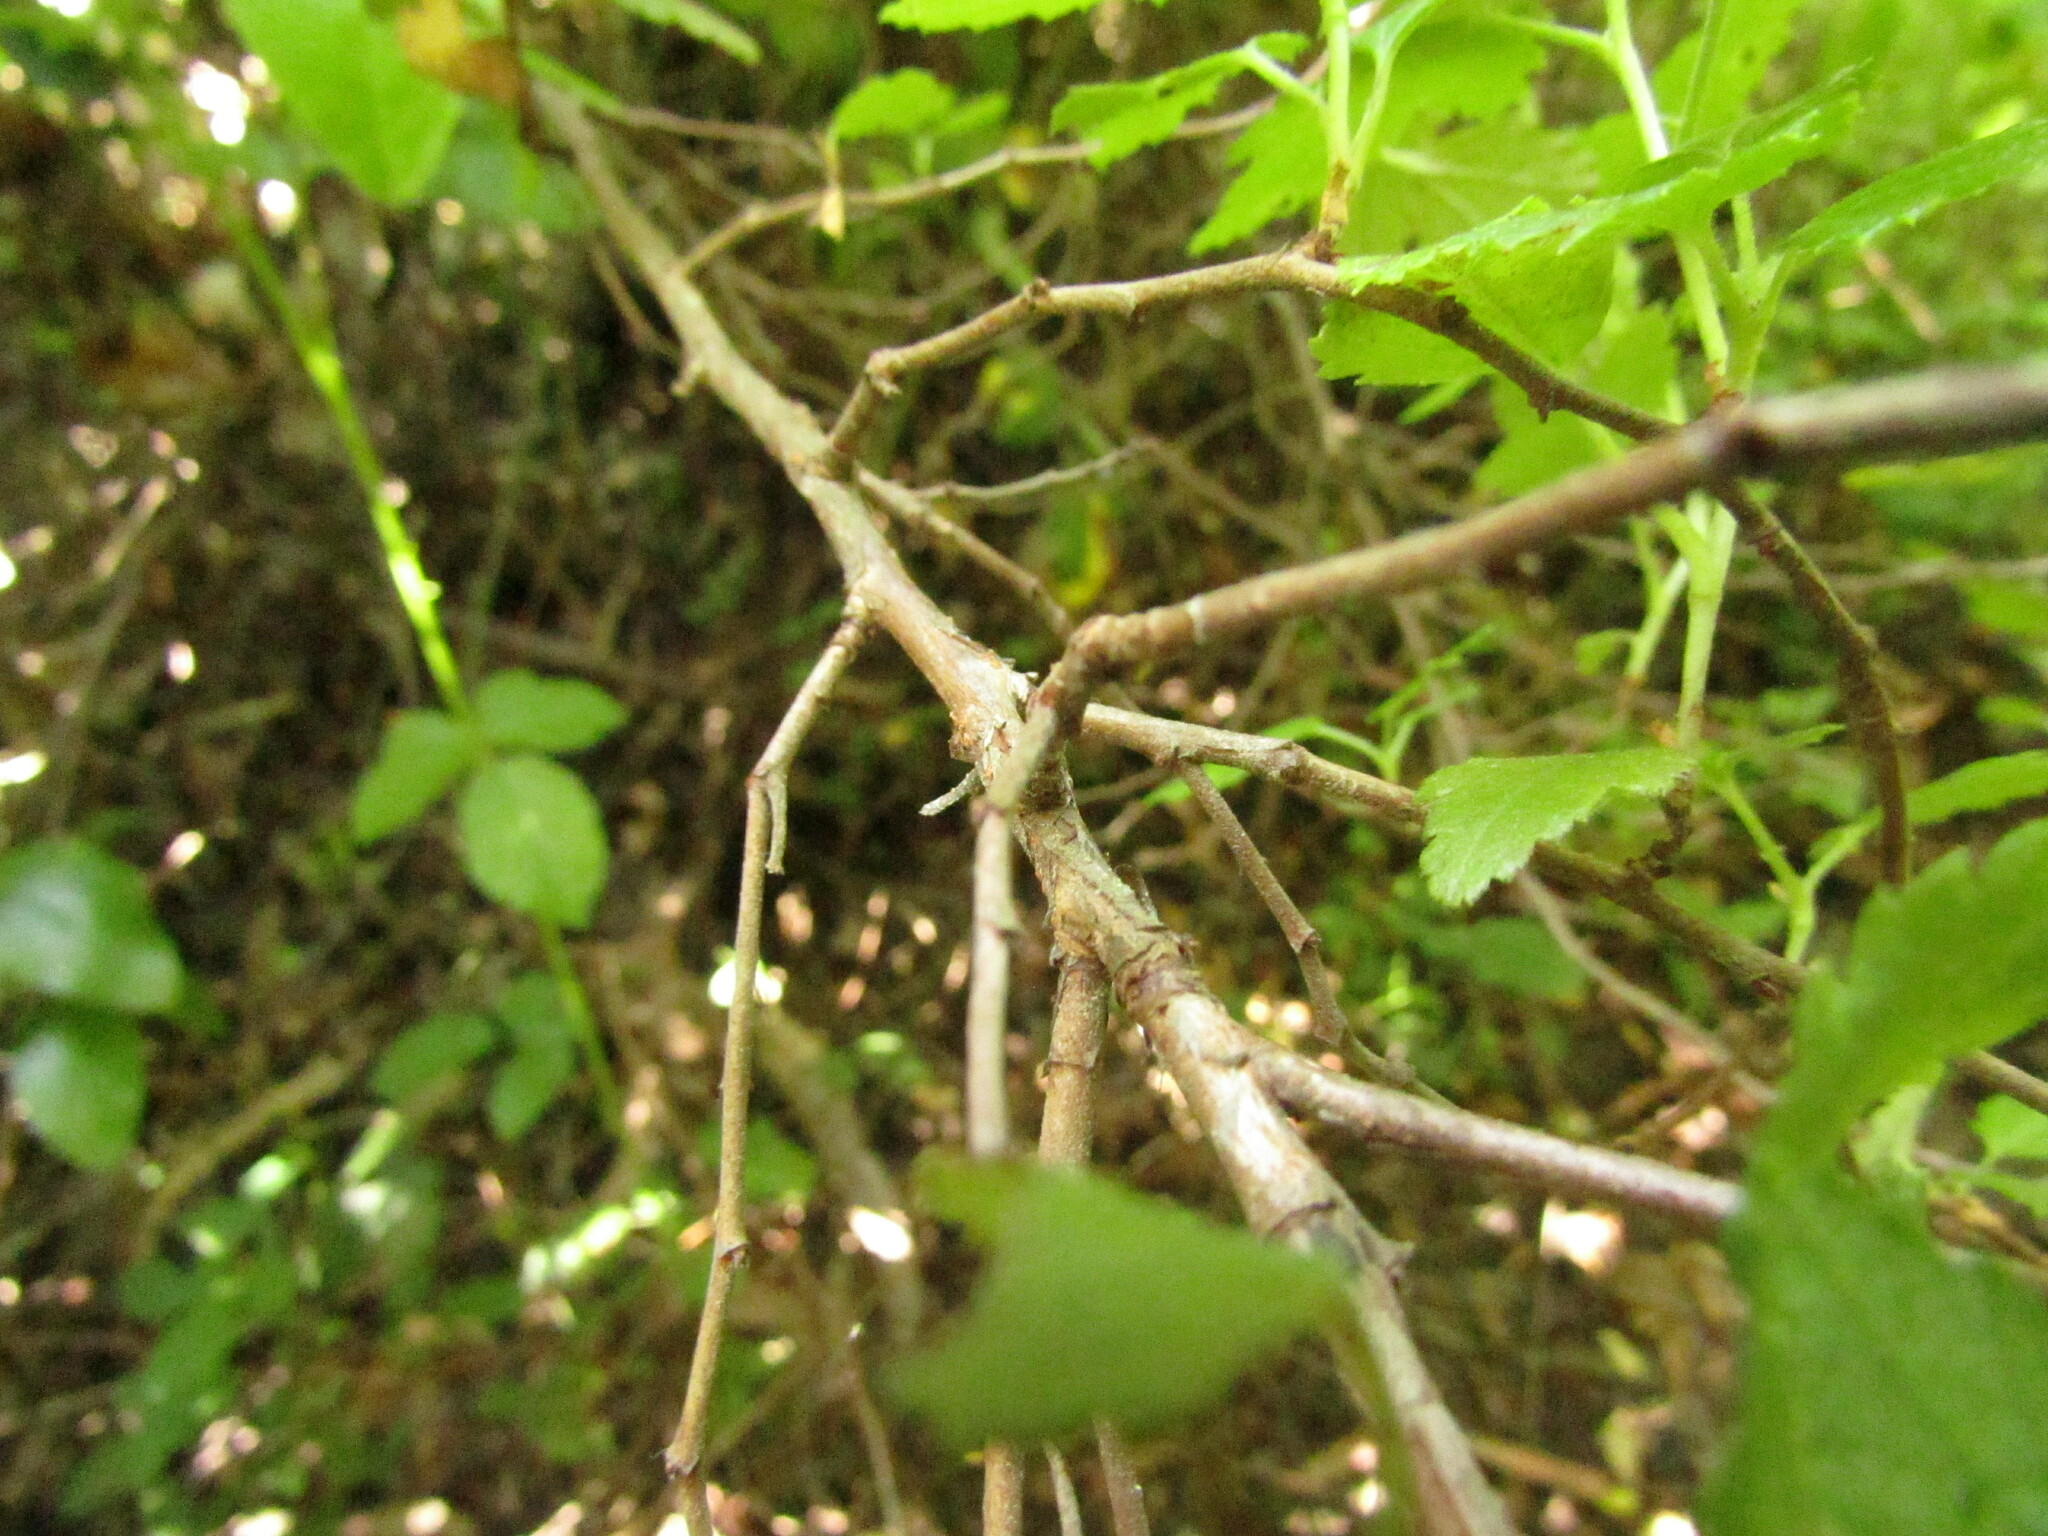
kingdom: Plantae
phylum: Tracheophyta
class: Magnoliopsida
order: Saxifragales
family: Grossulariaceae
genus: Ribes
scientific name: Ribes punctatum
